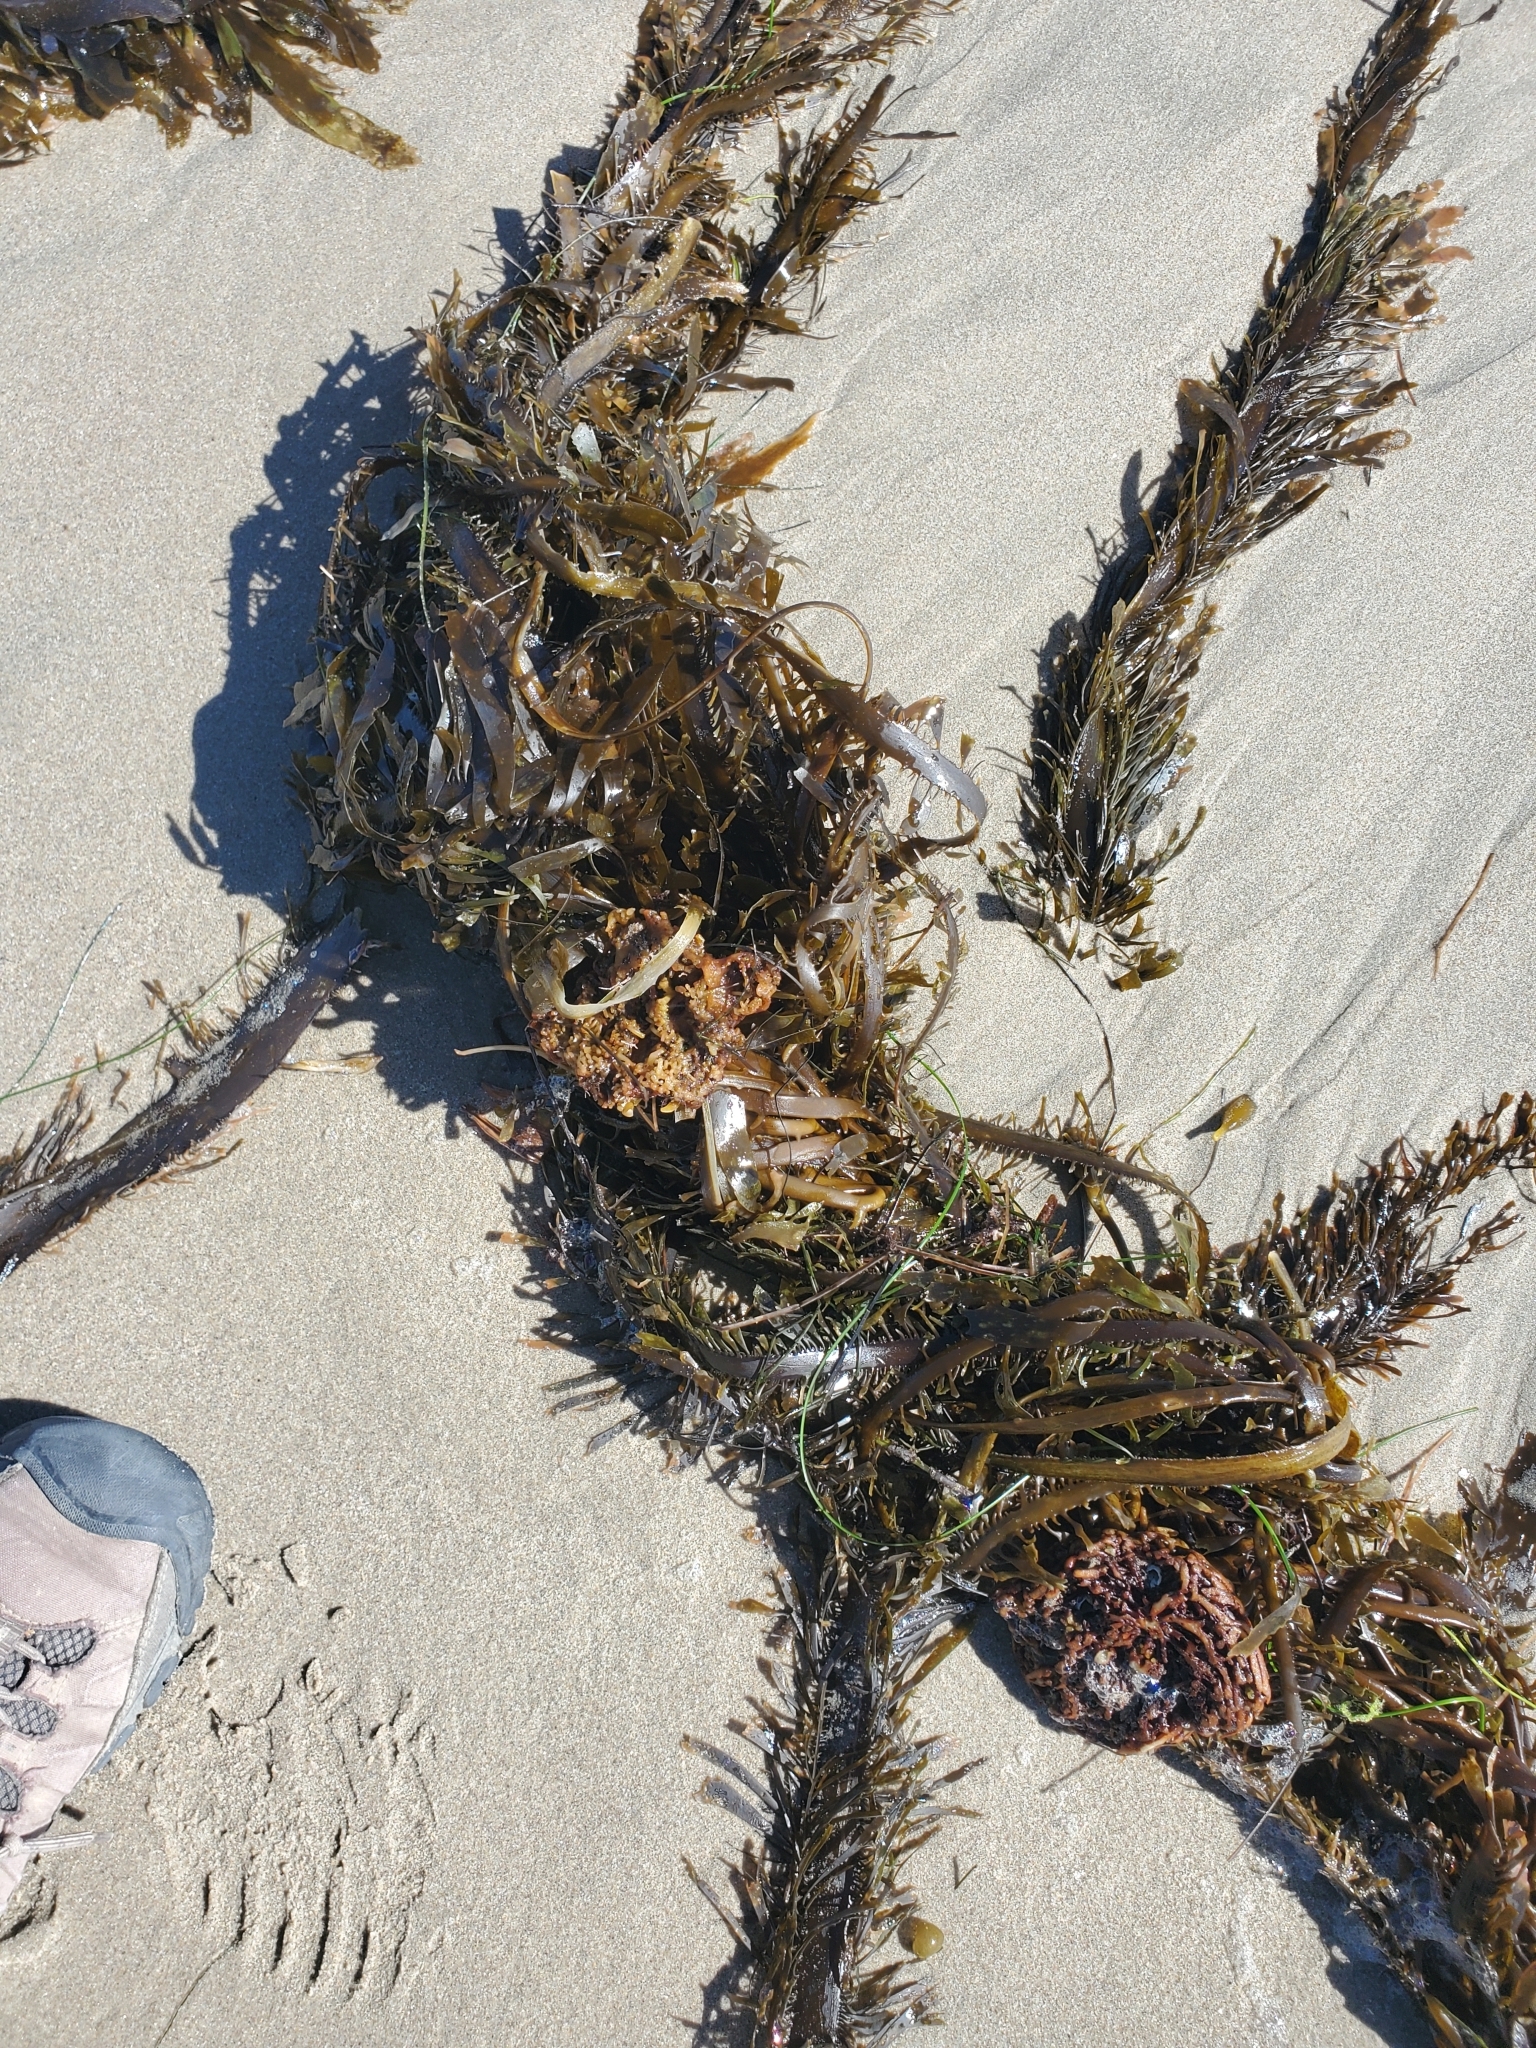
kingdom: Chromista
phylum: Ochrophyta
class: Phaeophyceae
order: Laminariales
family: Lessoniaceae
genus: Egregia
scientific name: Egregia menziesii
